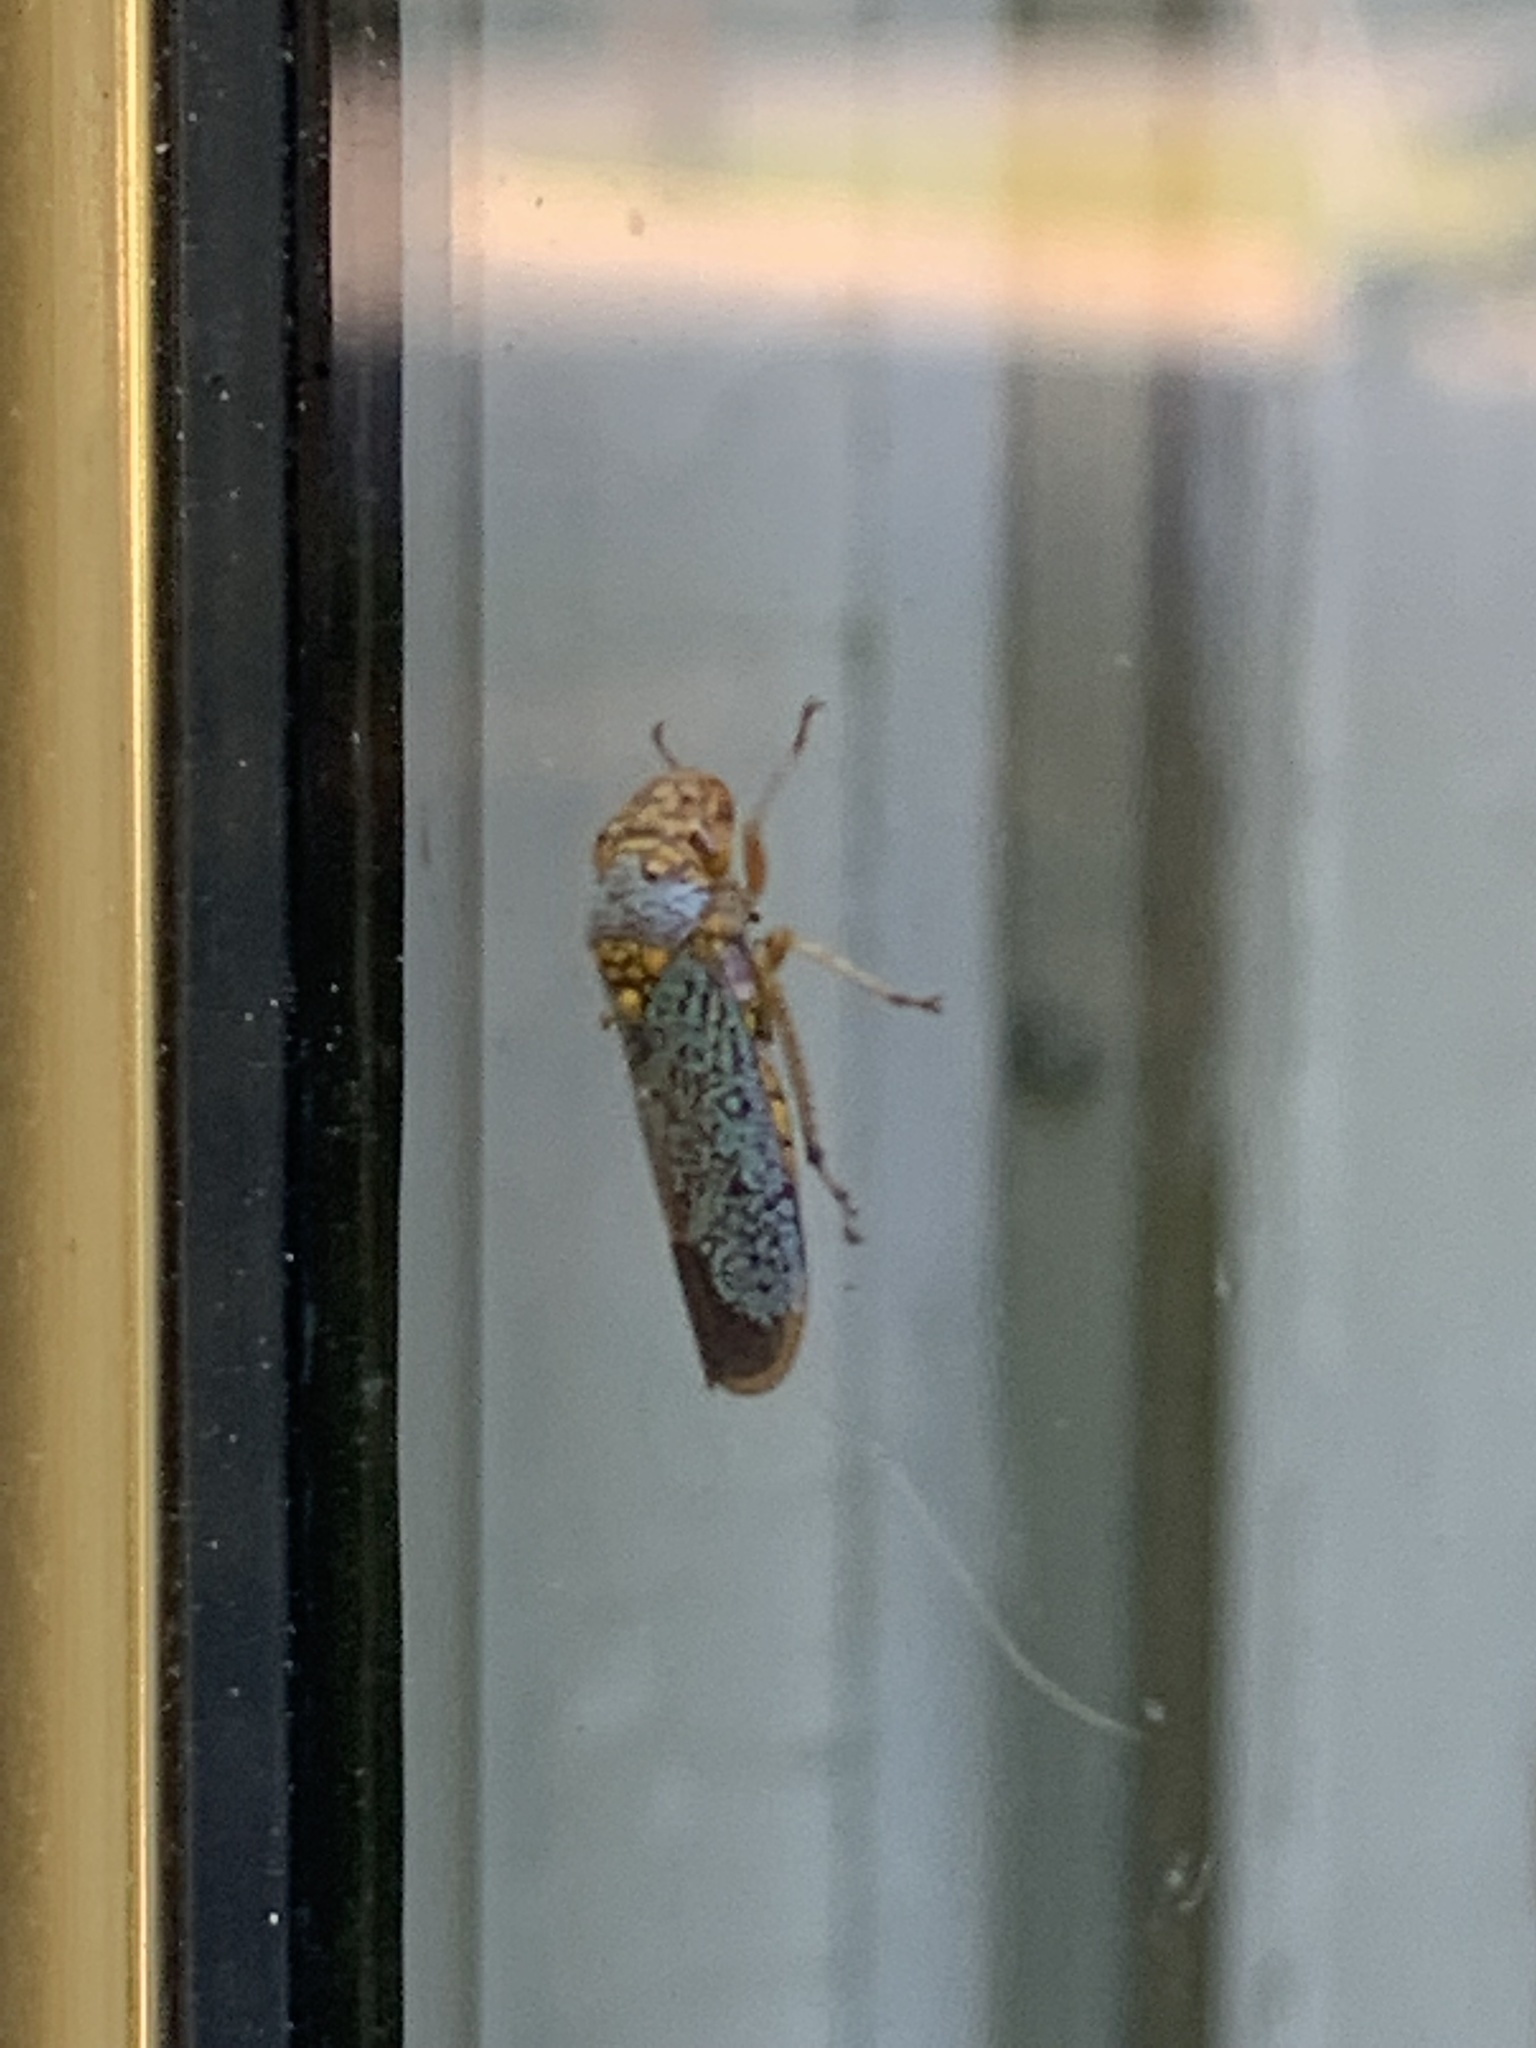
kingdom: Animalia
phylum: Arthropoda
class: Insecta
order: Hemiptera
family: Cicadellidae
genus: Oncometopia
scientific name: Oncometopia orbona
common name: Broad-headed sharpshooter
